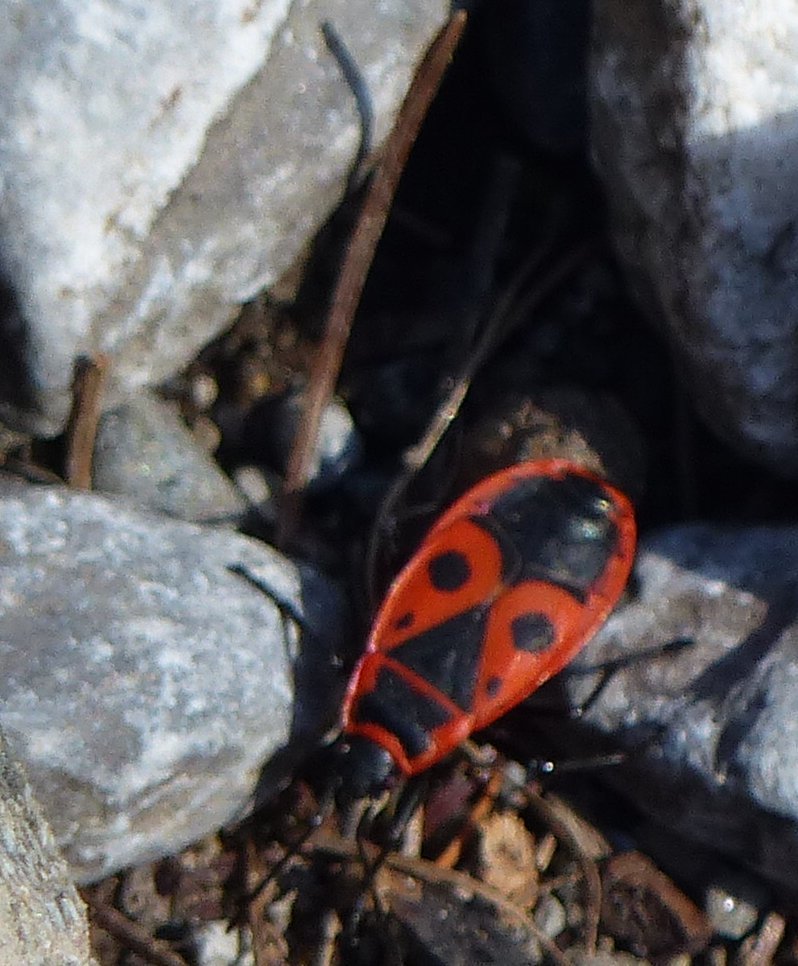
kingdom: Animalia
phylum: Arthropoda
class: Insecta
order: Hemiptera
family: Pyrrhocoridae
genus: Pyrrhocoris
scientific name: Pyrrhocoris apterus
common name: Firebug
